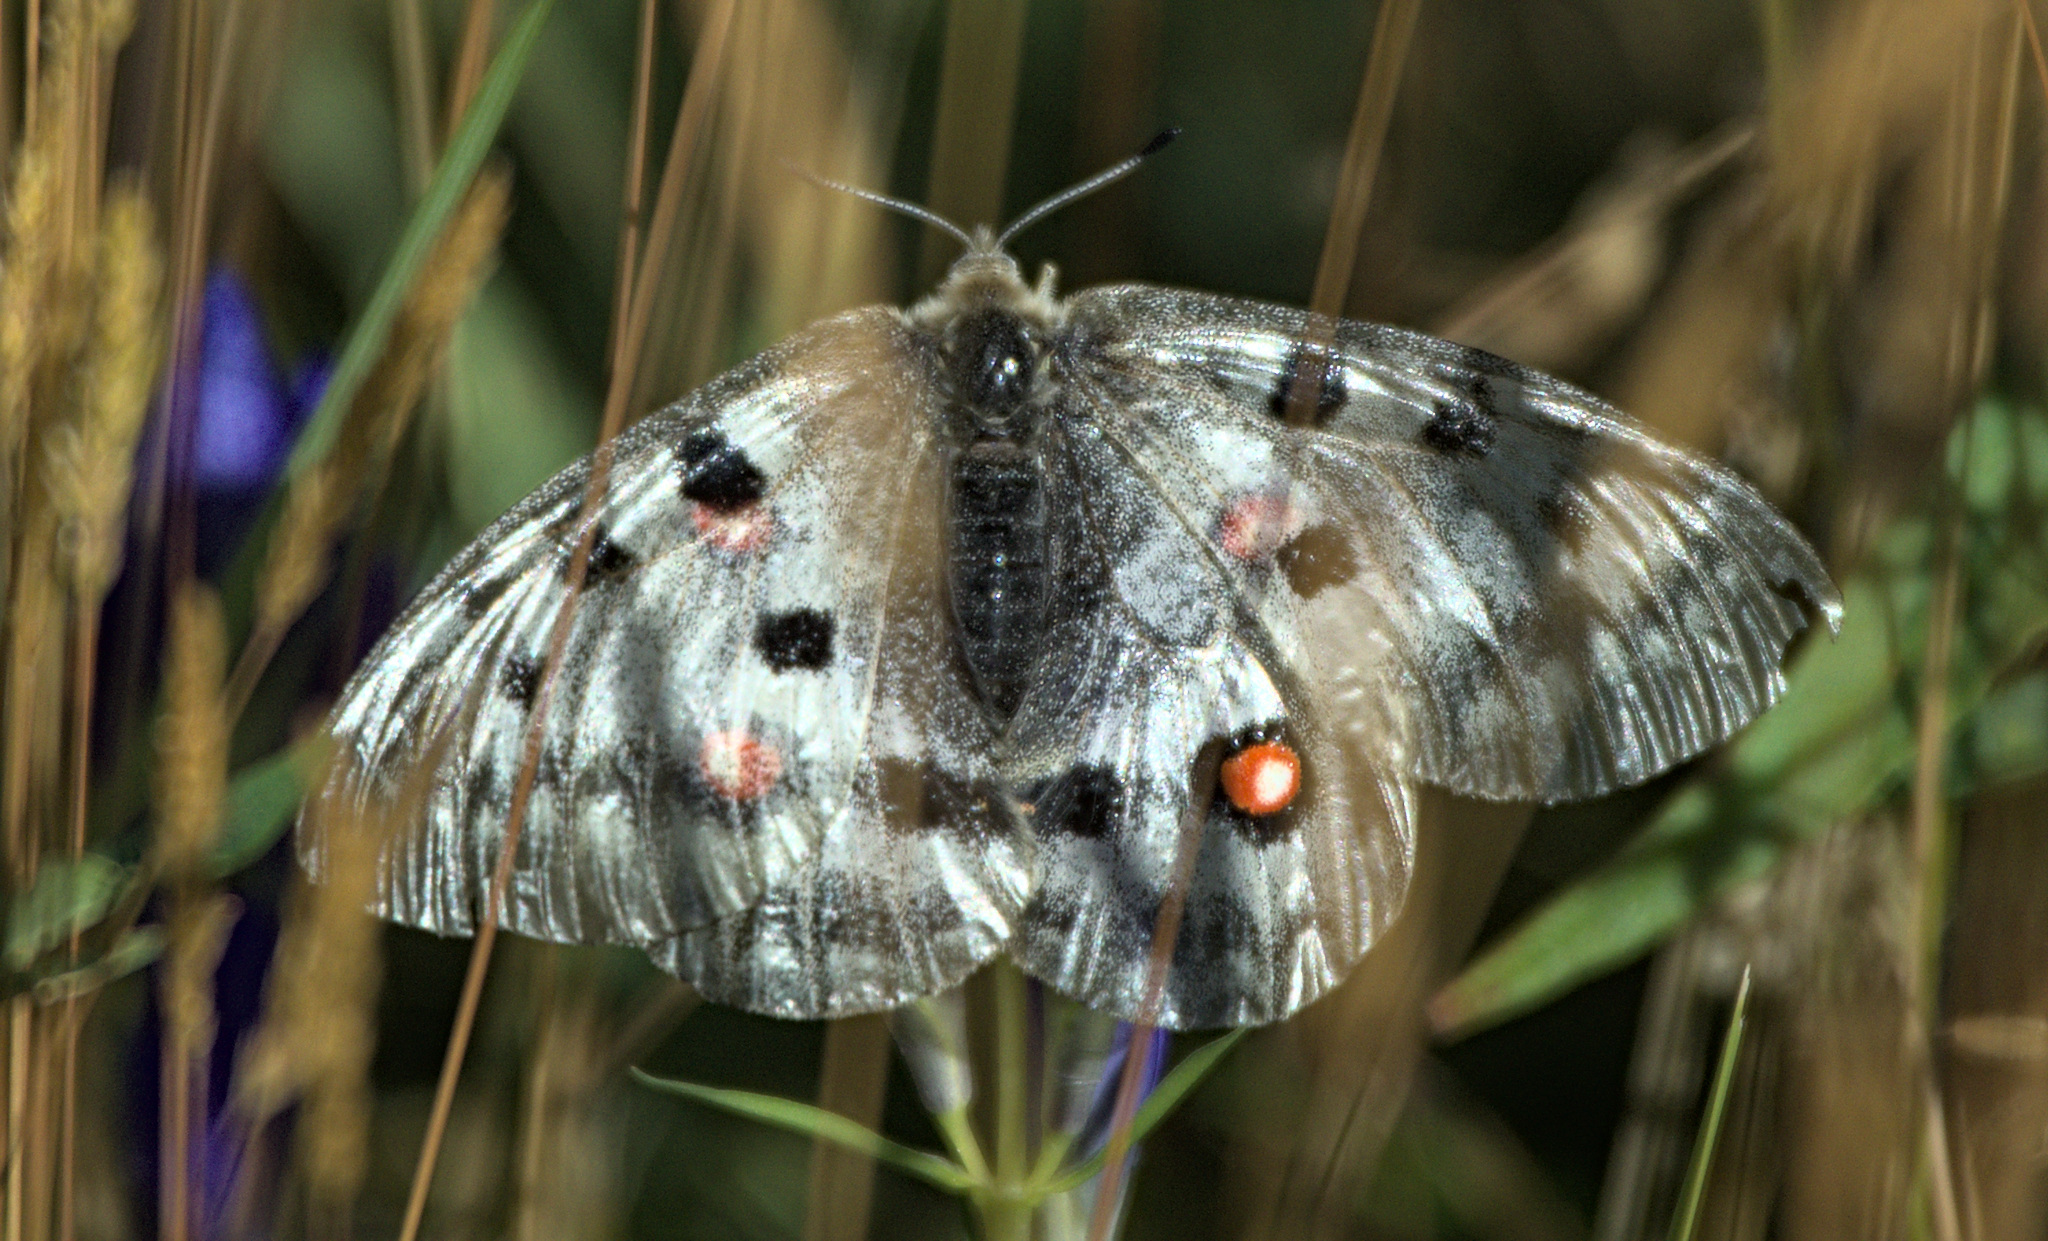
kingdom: Animalia
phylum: Arthropoda
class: Insecta
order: Lepidoptera
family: Papilionidae
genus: Parnassius
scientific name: Parnassius apollo
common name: Apollo
